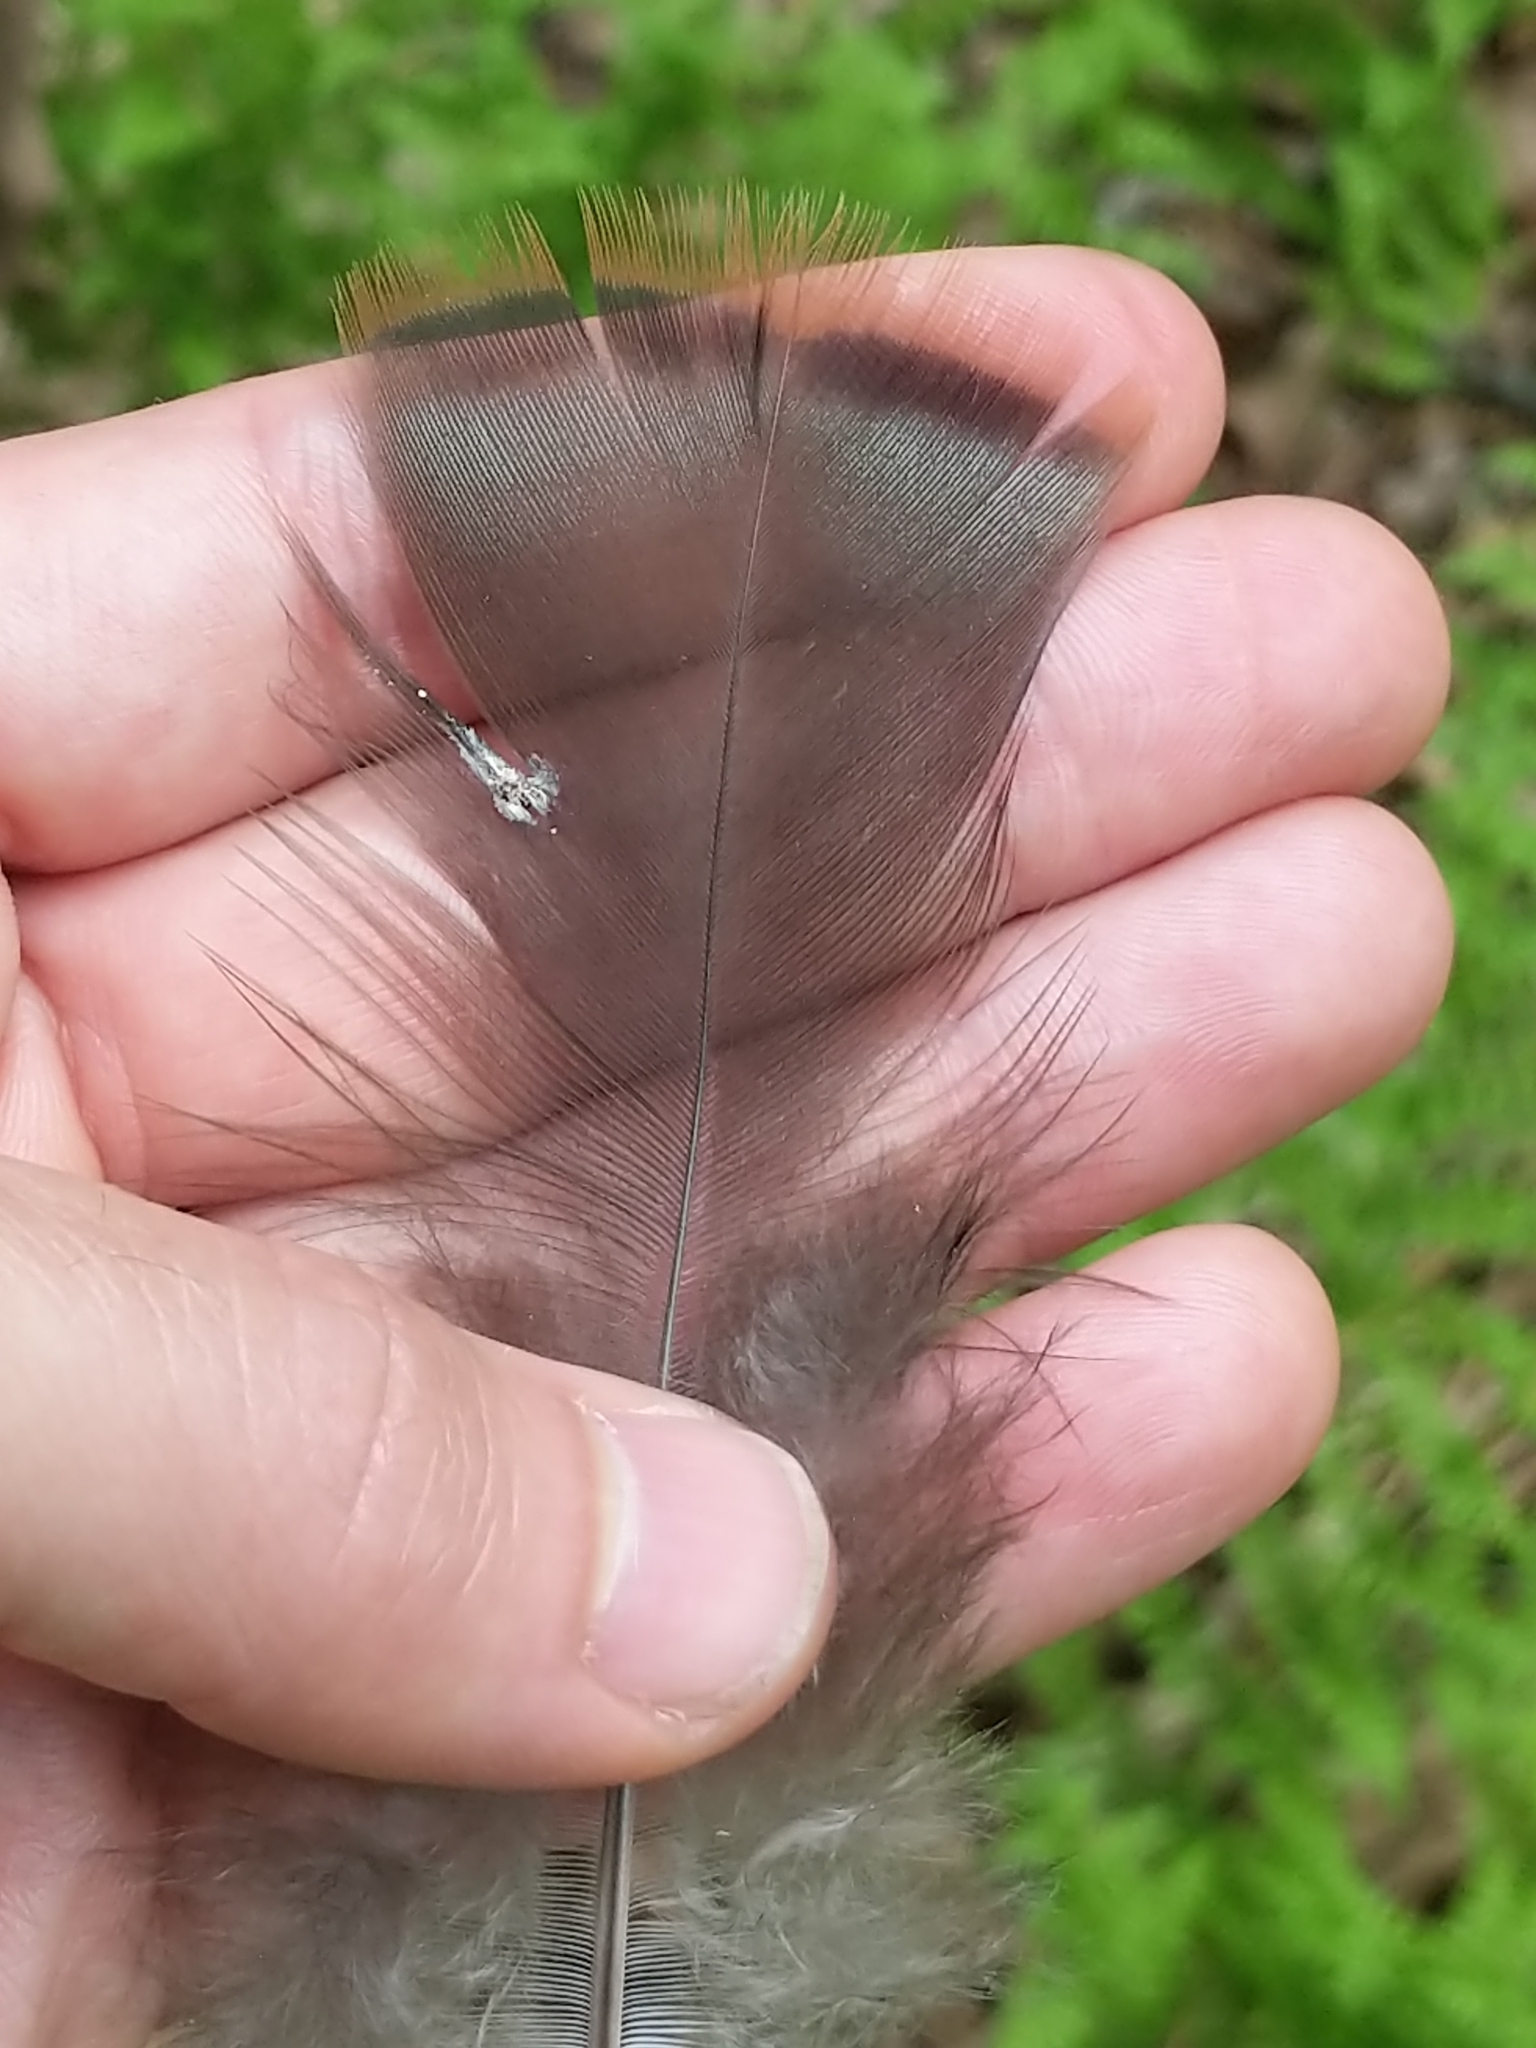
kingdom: Animalia
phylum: Chordata
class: Aves
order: Galliformes
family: Phasianidae
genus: Meleagris
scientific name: Meleagris gallopavo
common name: Wild turkey
